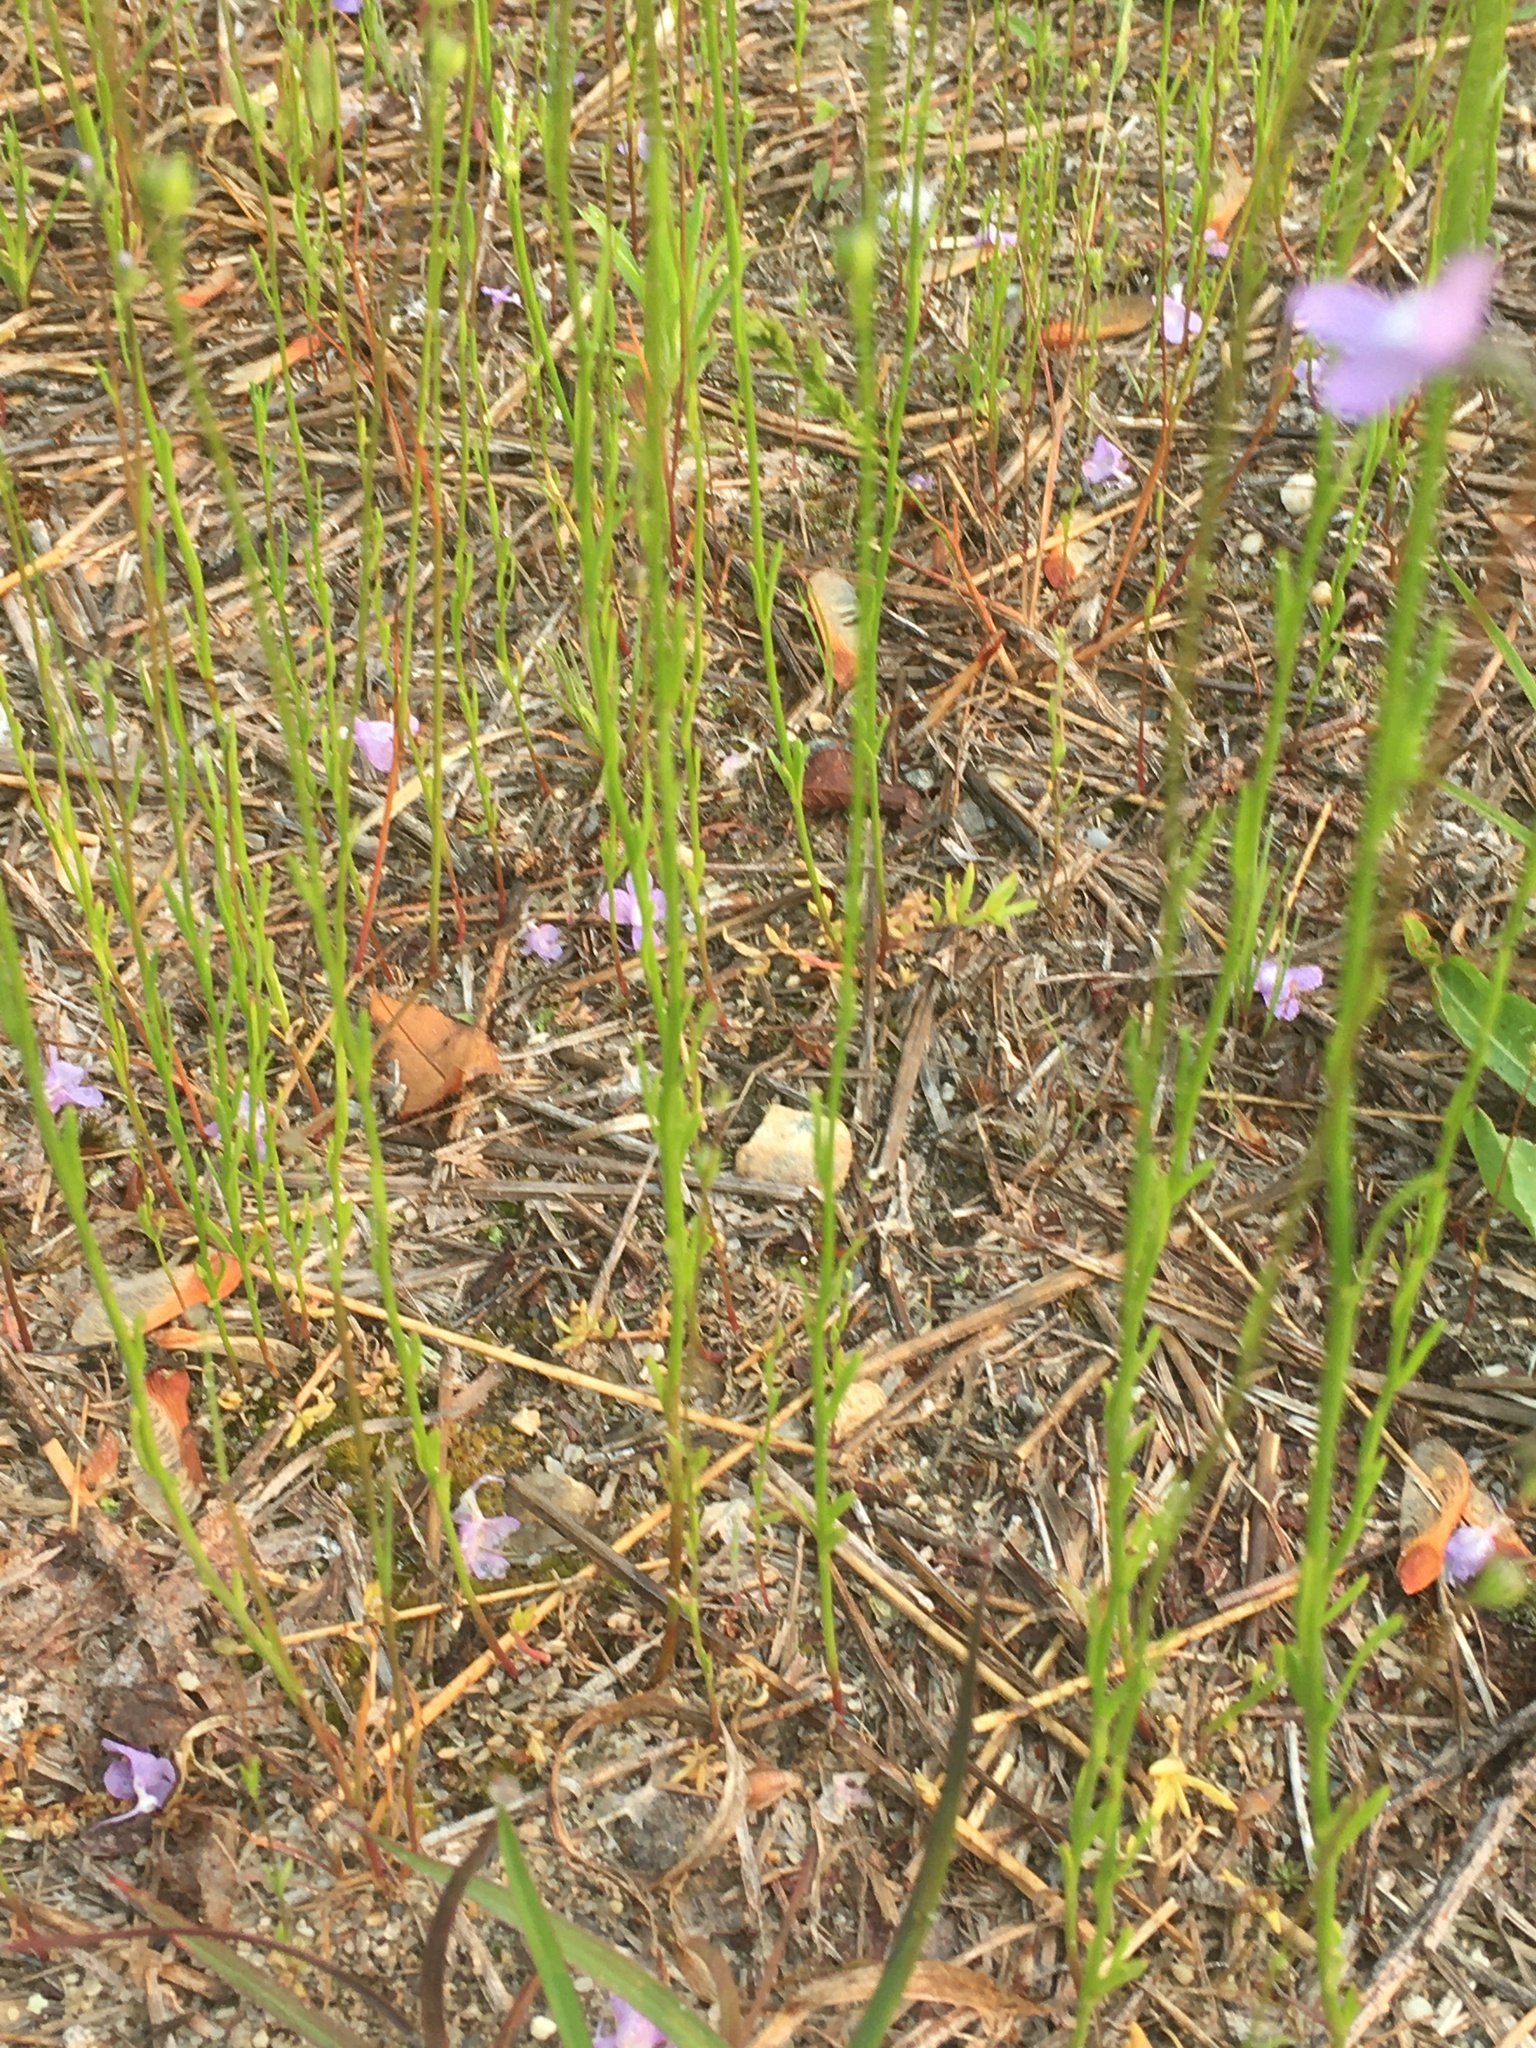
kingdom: Plantae
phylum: Tracheophyta
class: Magnoliopsida
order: Lamiales
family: Plantaginaceae
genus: Nuttallanthus
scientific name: Nuttallanthus canadensis
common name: Blue toadflax
